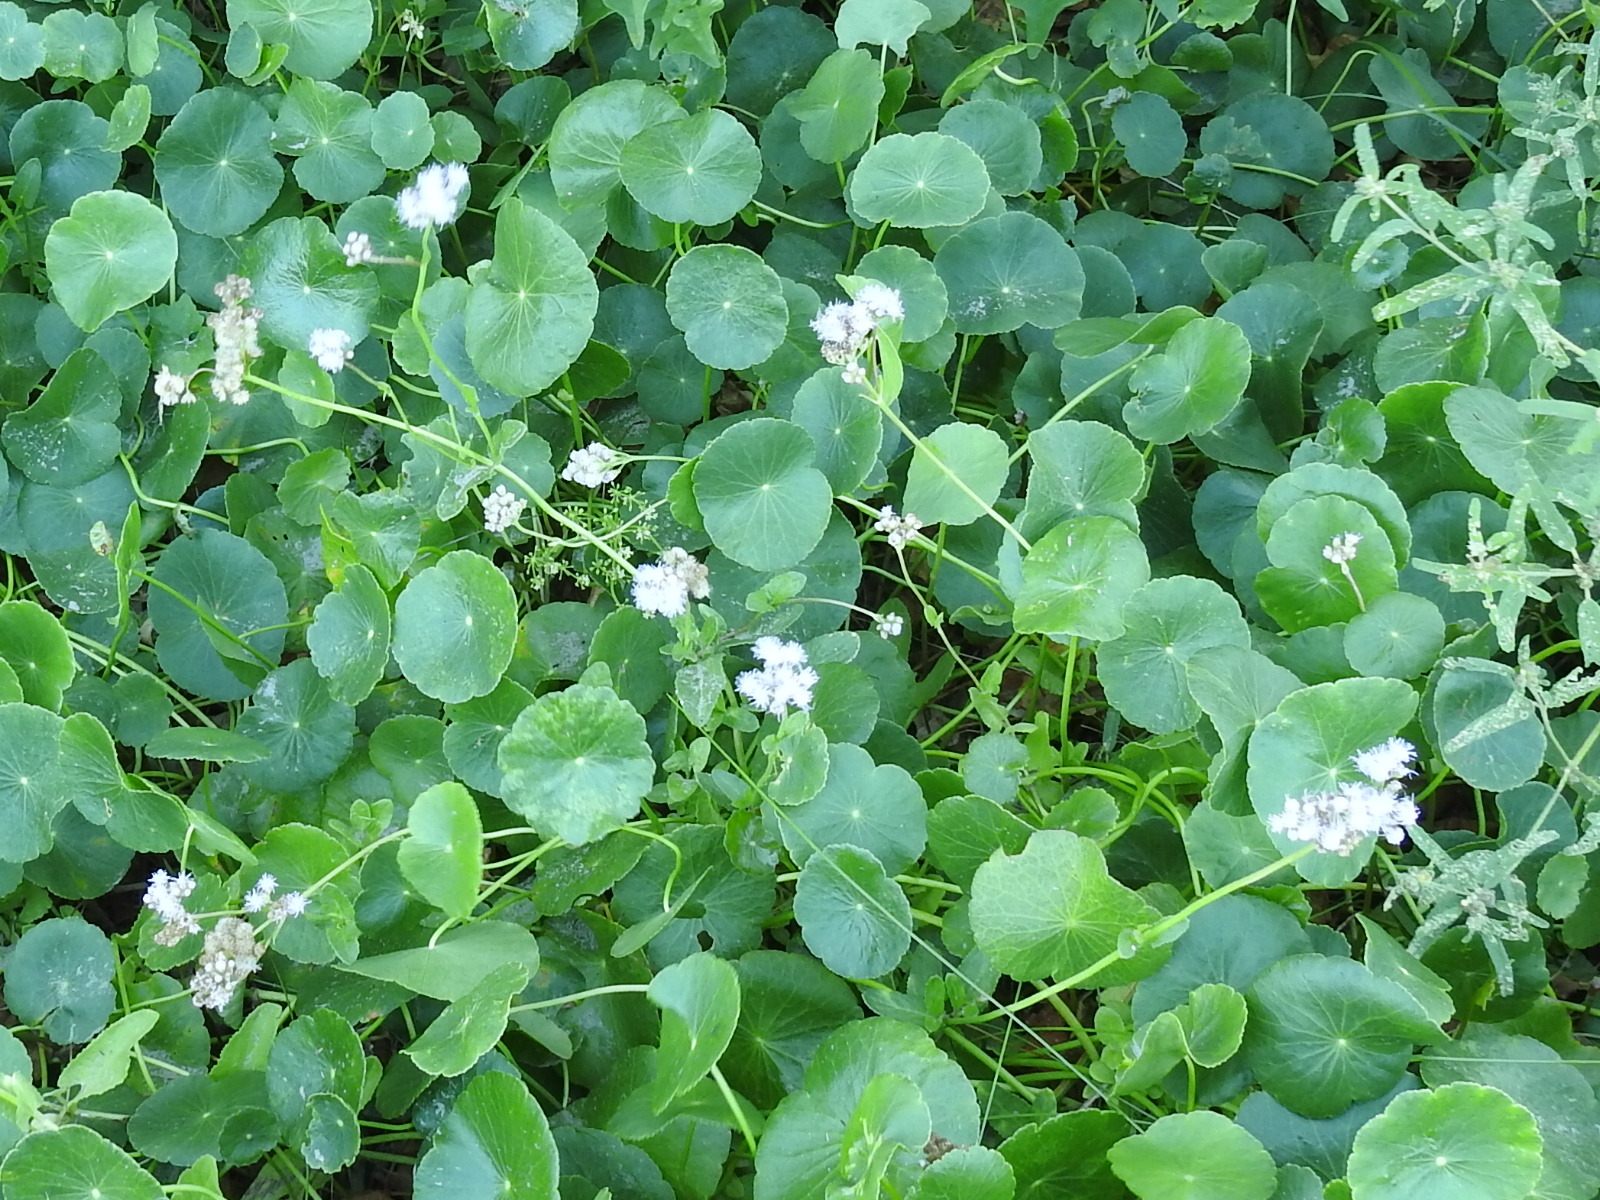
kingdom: Plantae
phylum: Tracheophyta
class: Magnoliopsida
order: Asterales
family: Asteraceae
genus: Conoclinium
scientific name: Conoclinium betonicifolium
